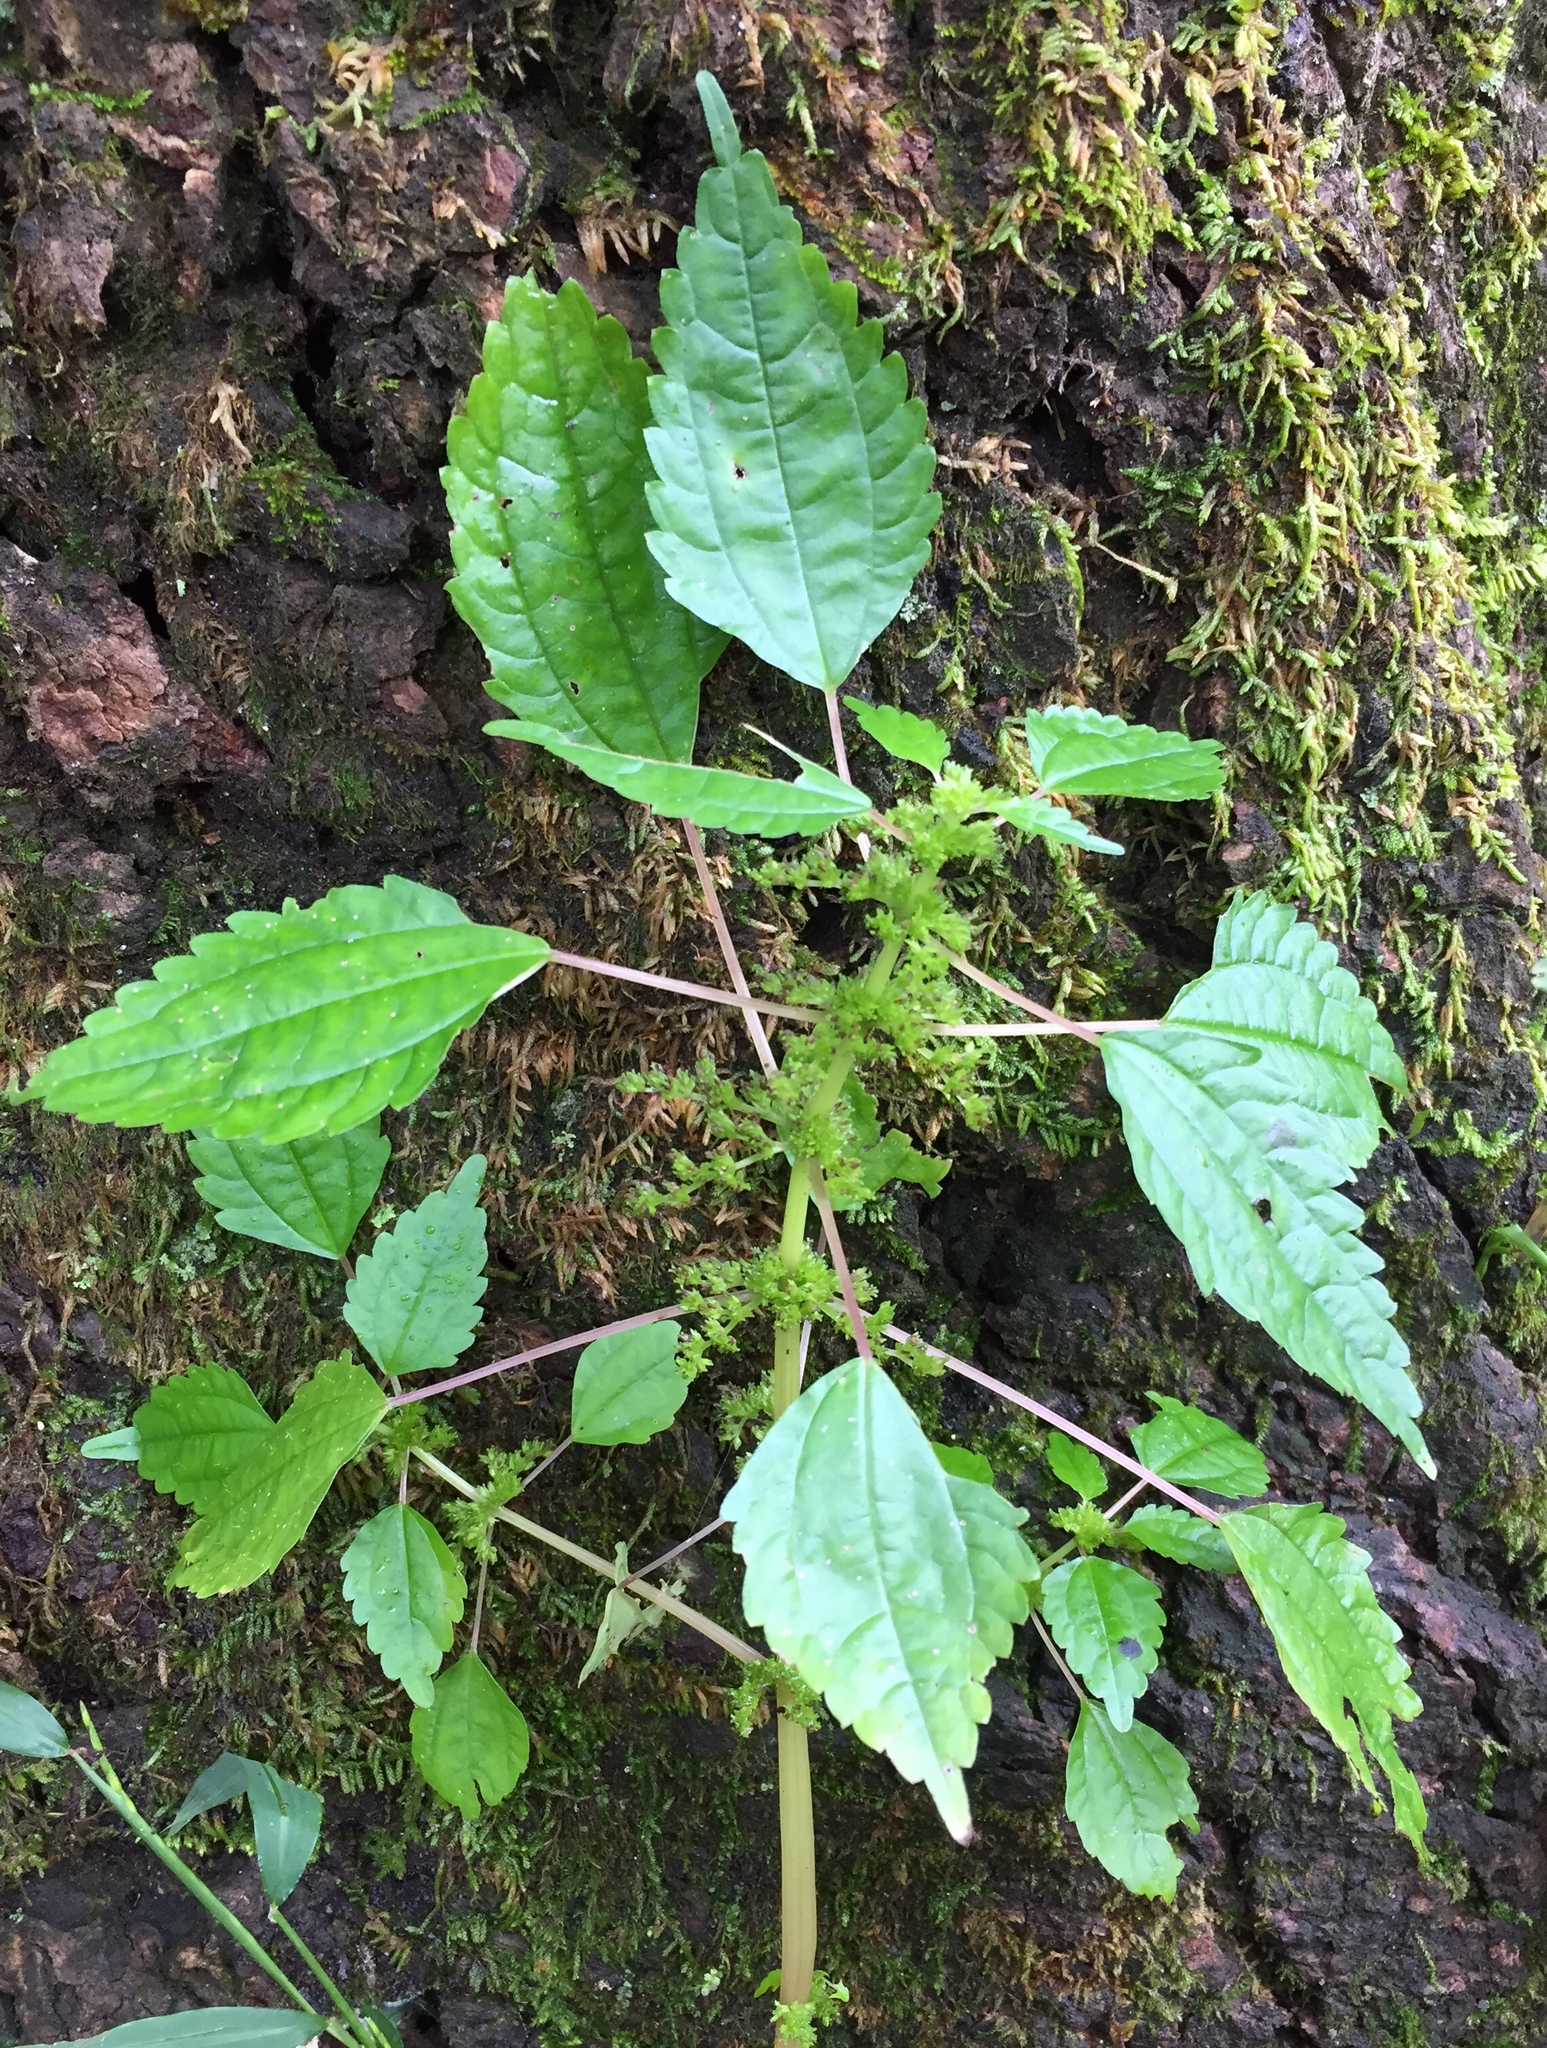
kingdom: Plantae
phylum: Tracheophyta
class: Magnoliopsida
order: Rosales
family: Urticaceae
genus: Pilea
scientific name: Pilea pumila
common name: Clearweed
